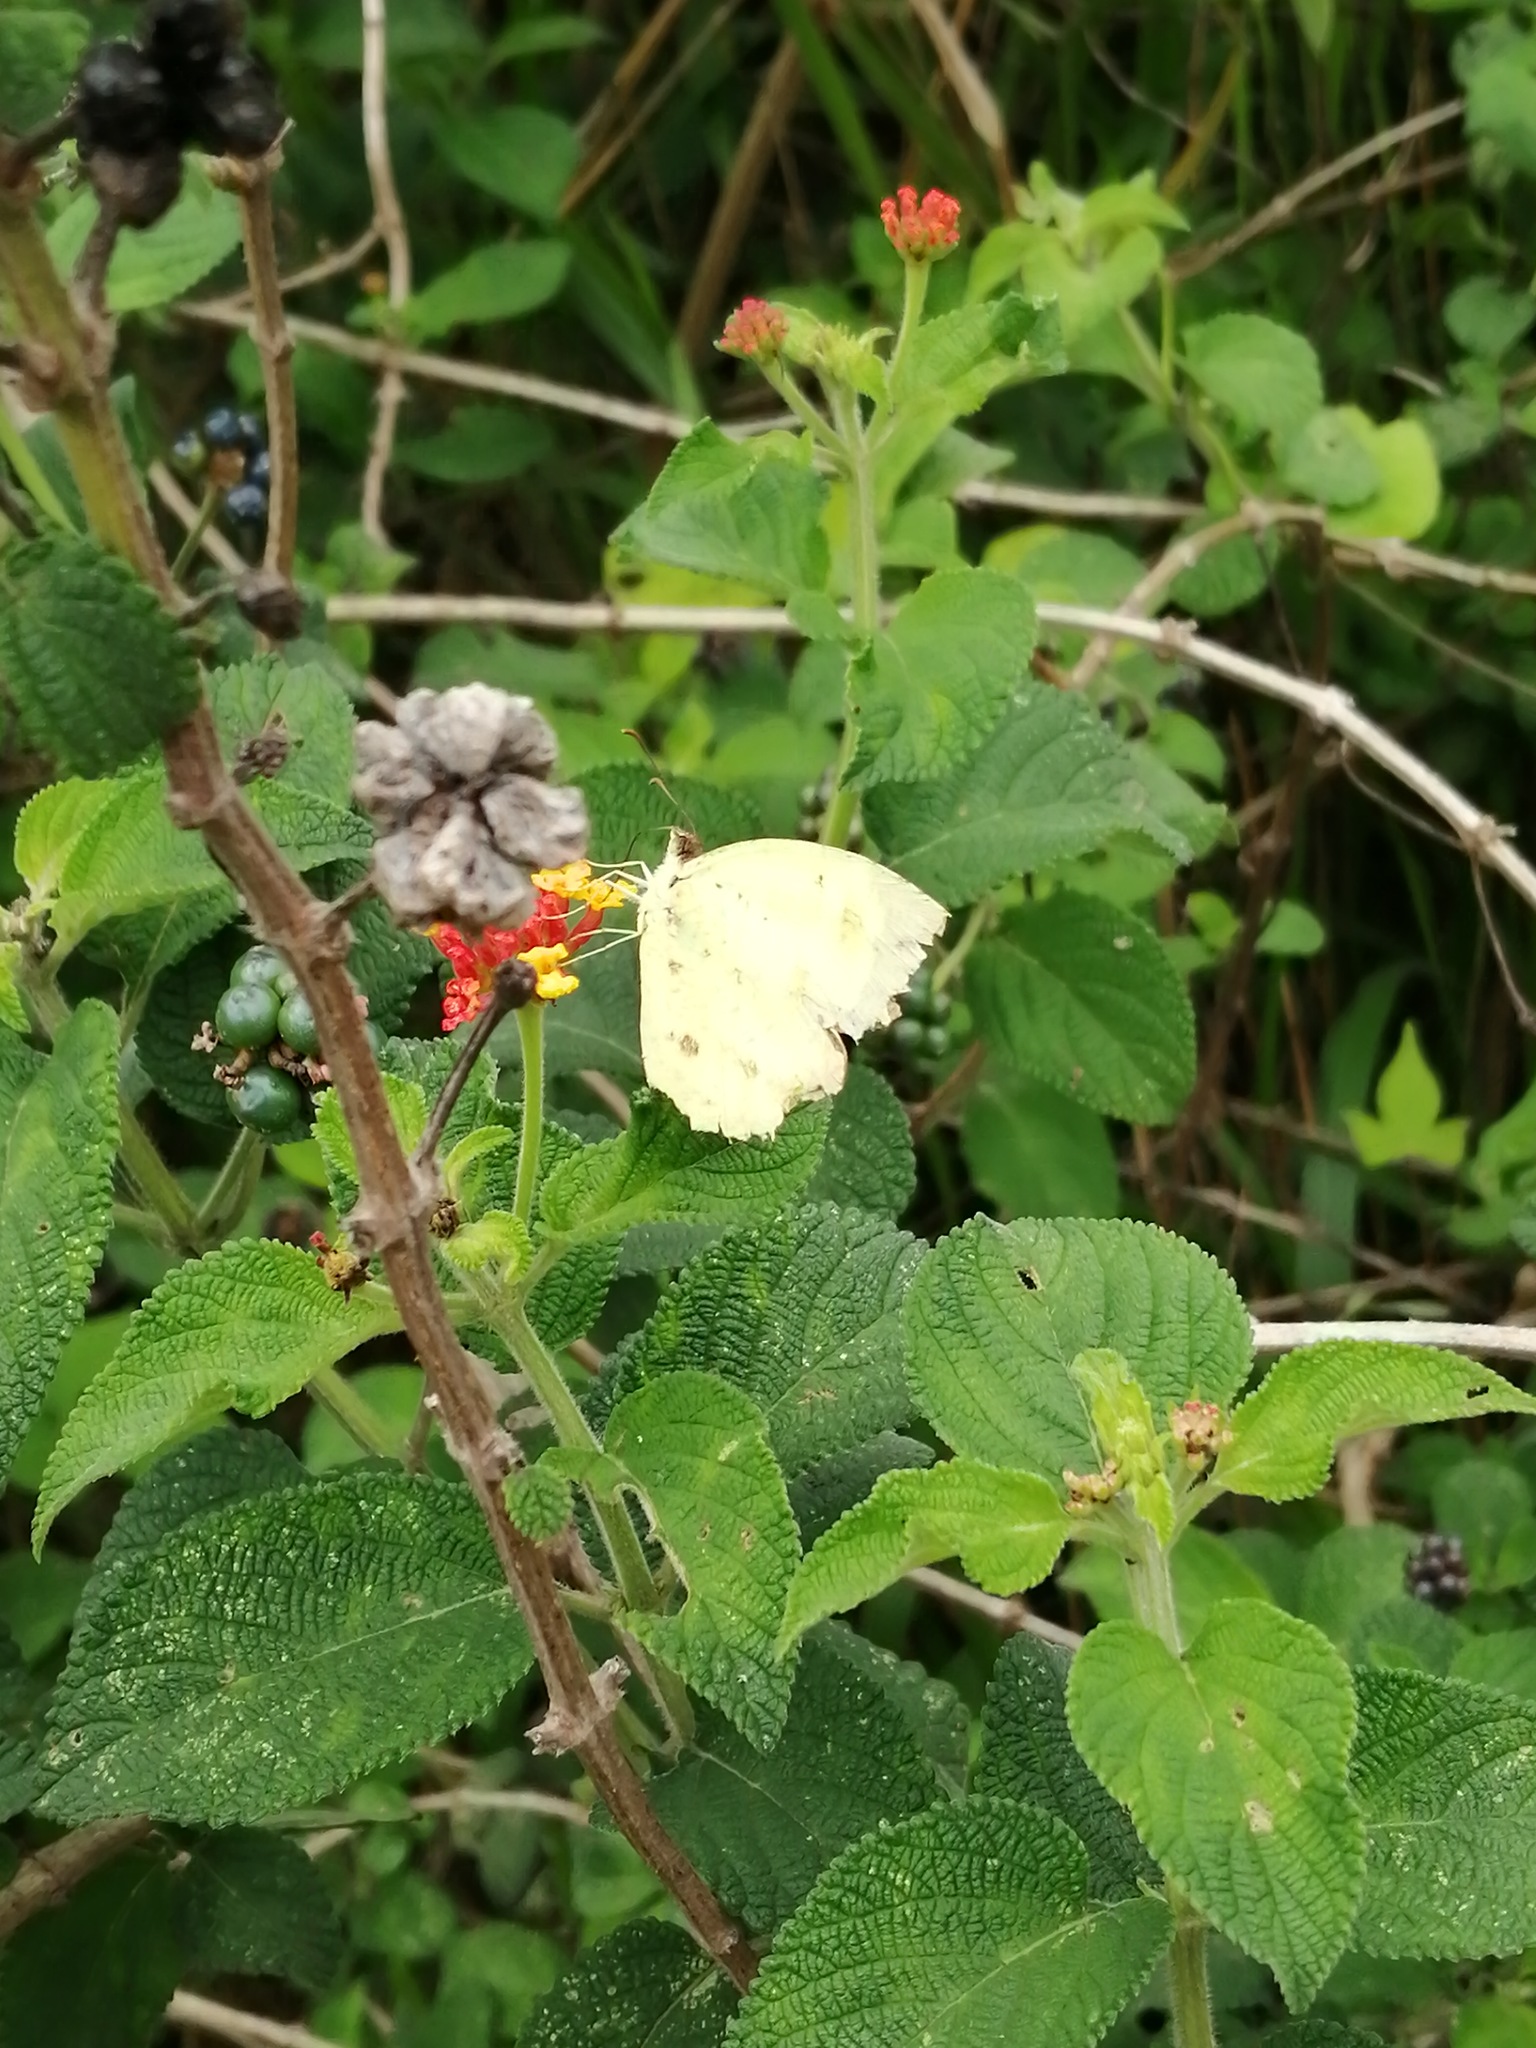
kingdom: Animalia
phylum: Arthropoda
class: Insecta
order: Lepidoptera
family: Pieridae
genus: Abaeis
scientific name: Abaeis salome
